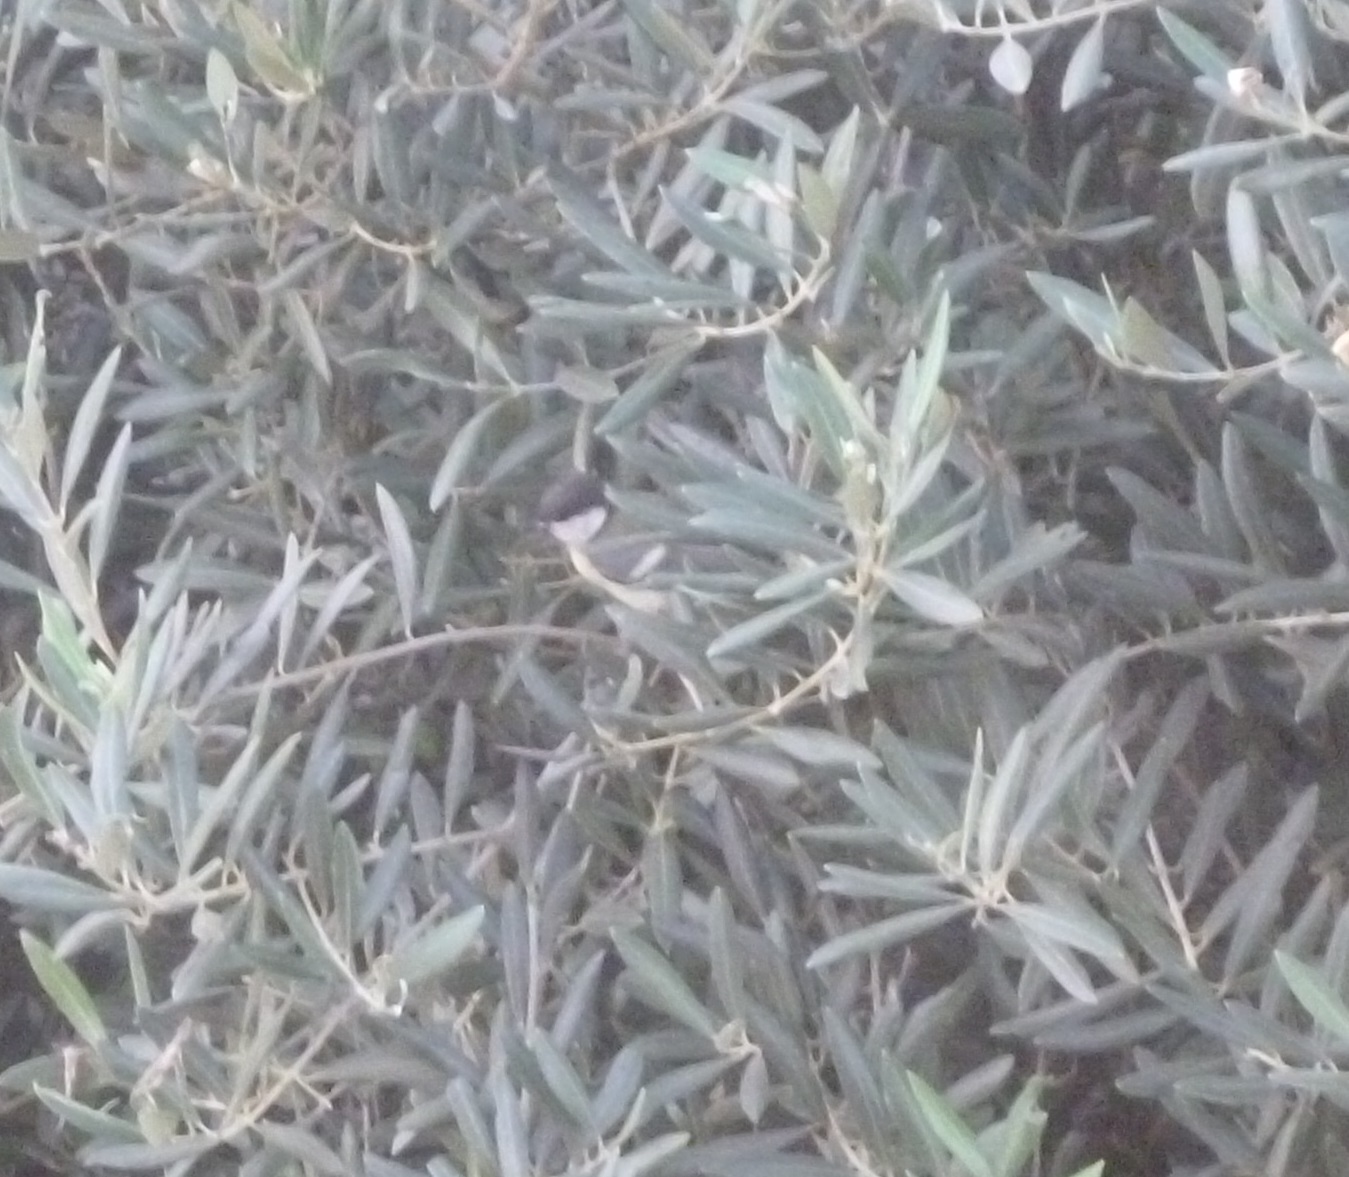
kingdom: Animalia
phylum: Chordata
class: Aves
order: Passeriformes
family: Paridae
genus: Parus
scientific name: Parus major
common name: Great tit
